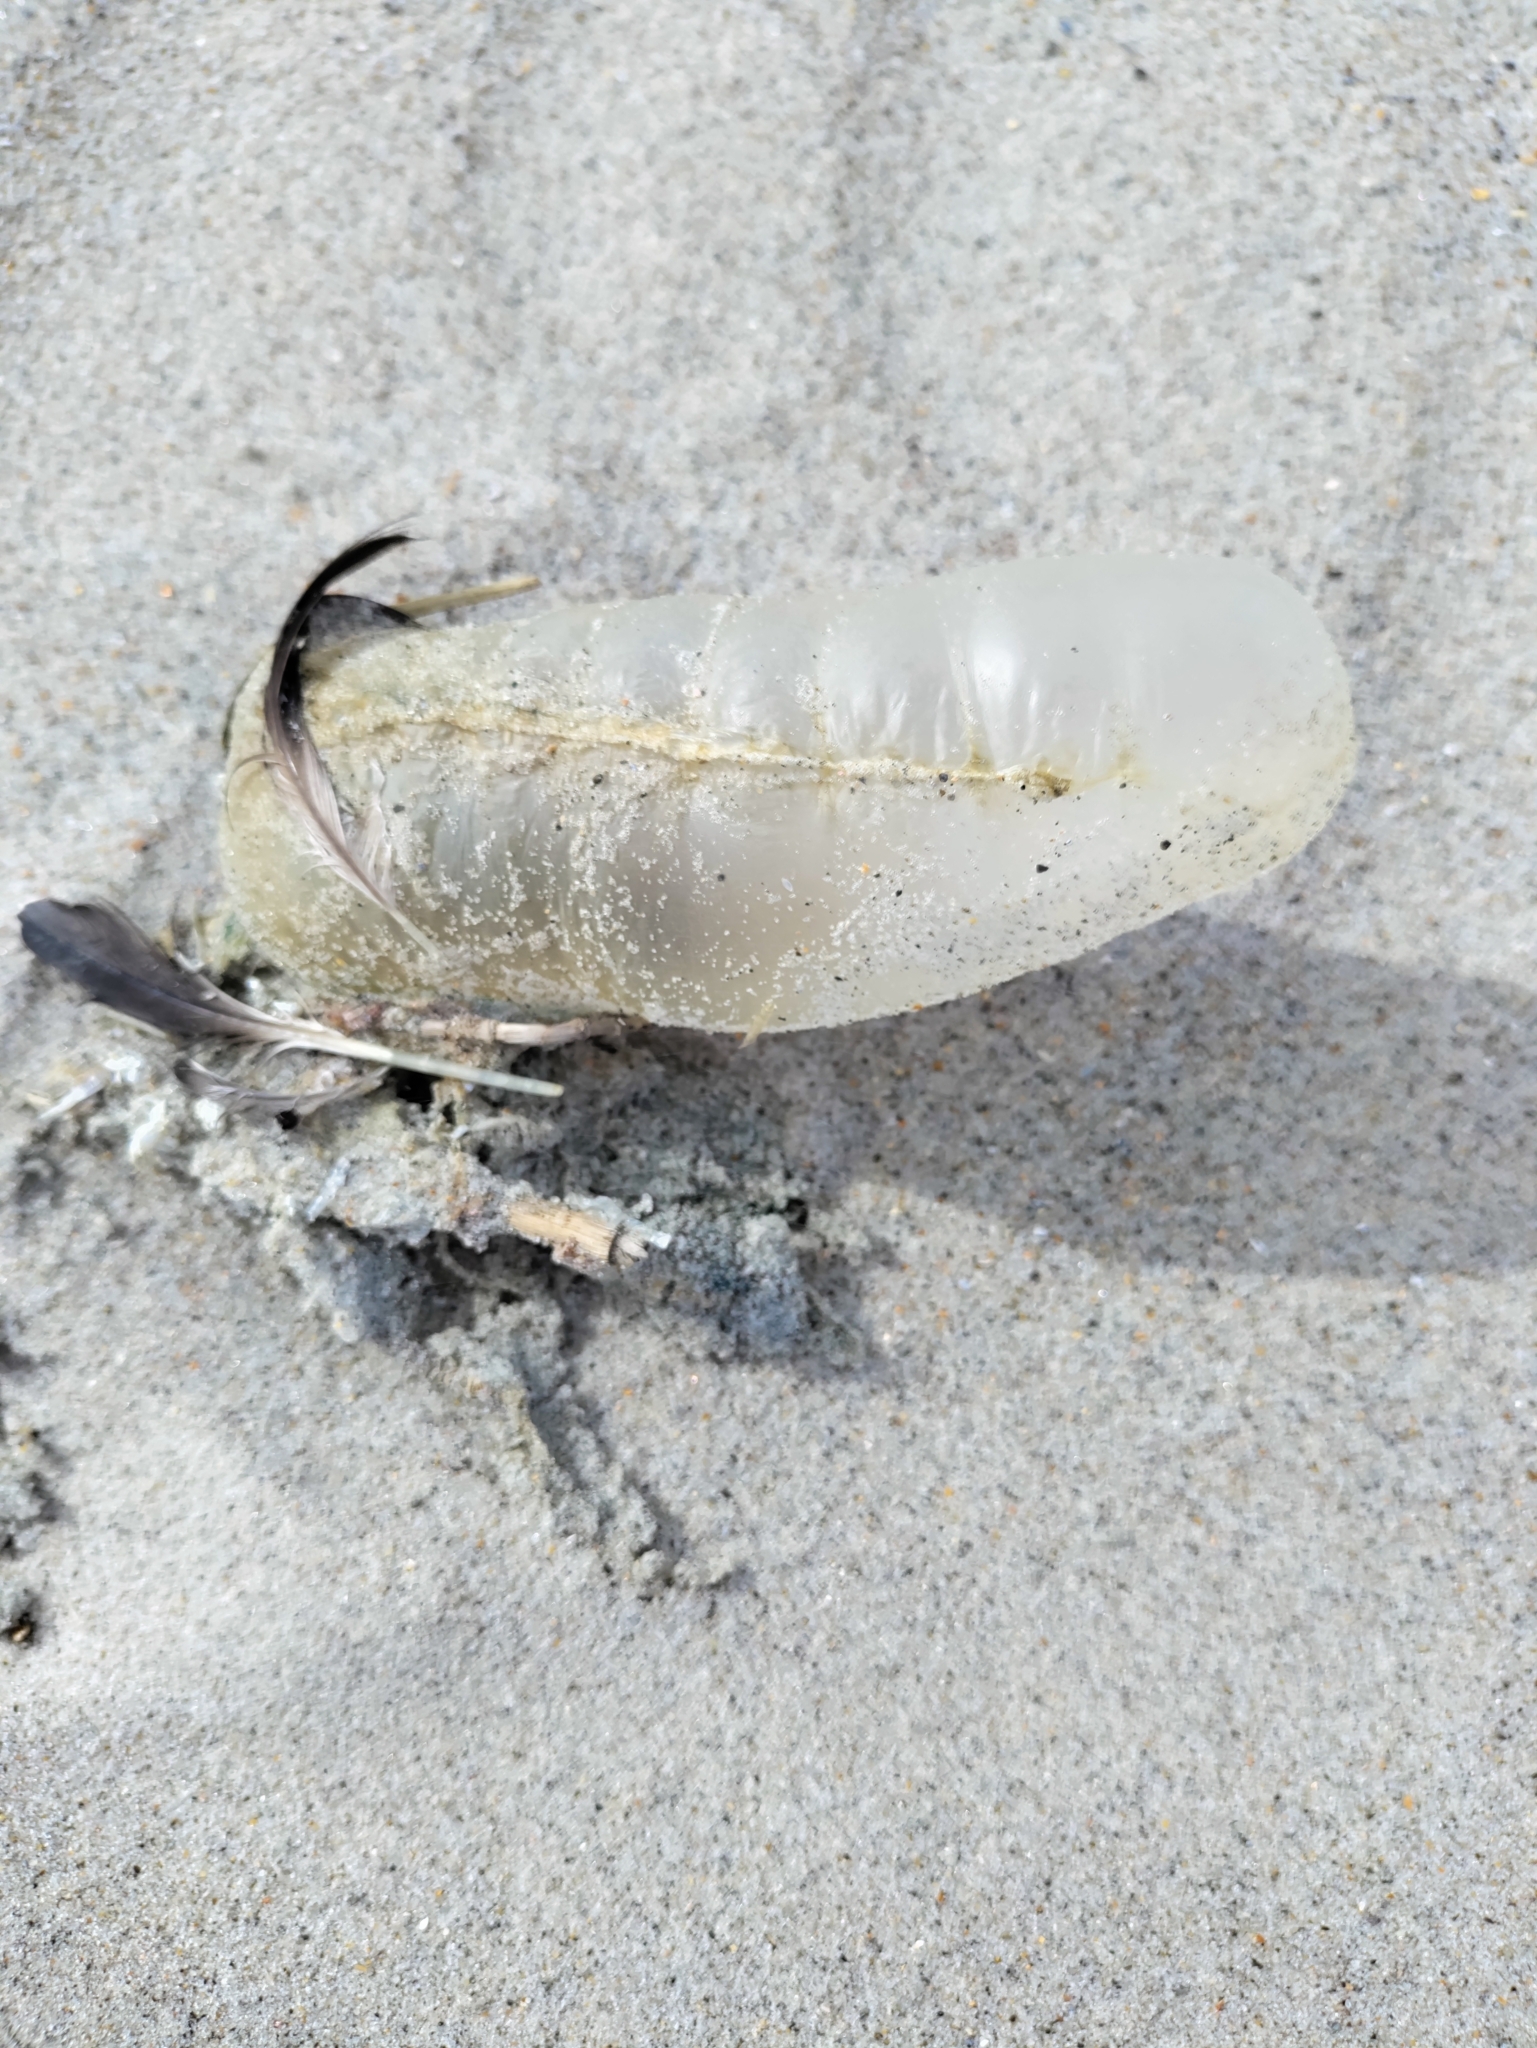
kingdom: Animalia
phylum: Cnidaria
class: Hydrozoa
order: Siphonophorae
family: Physaliidae
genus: Physalia
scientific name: Physalia physalis
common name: Portuguese man-of-war
